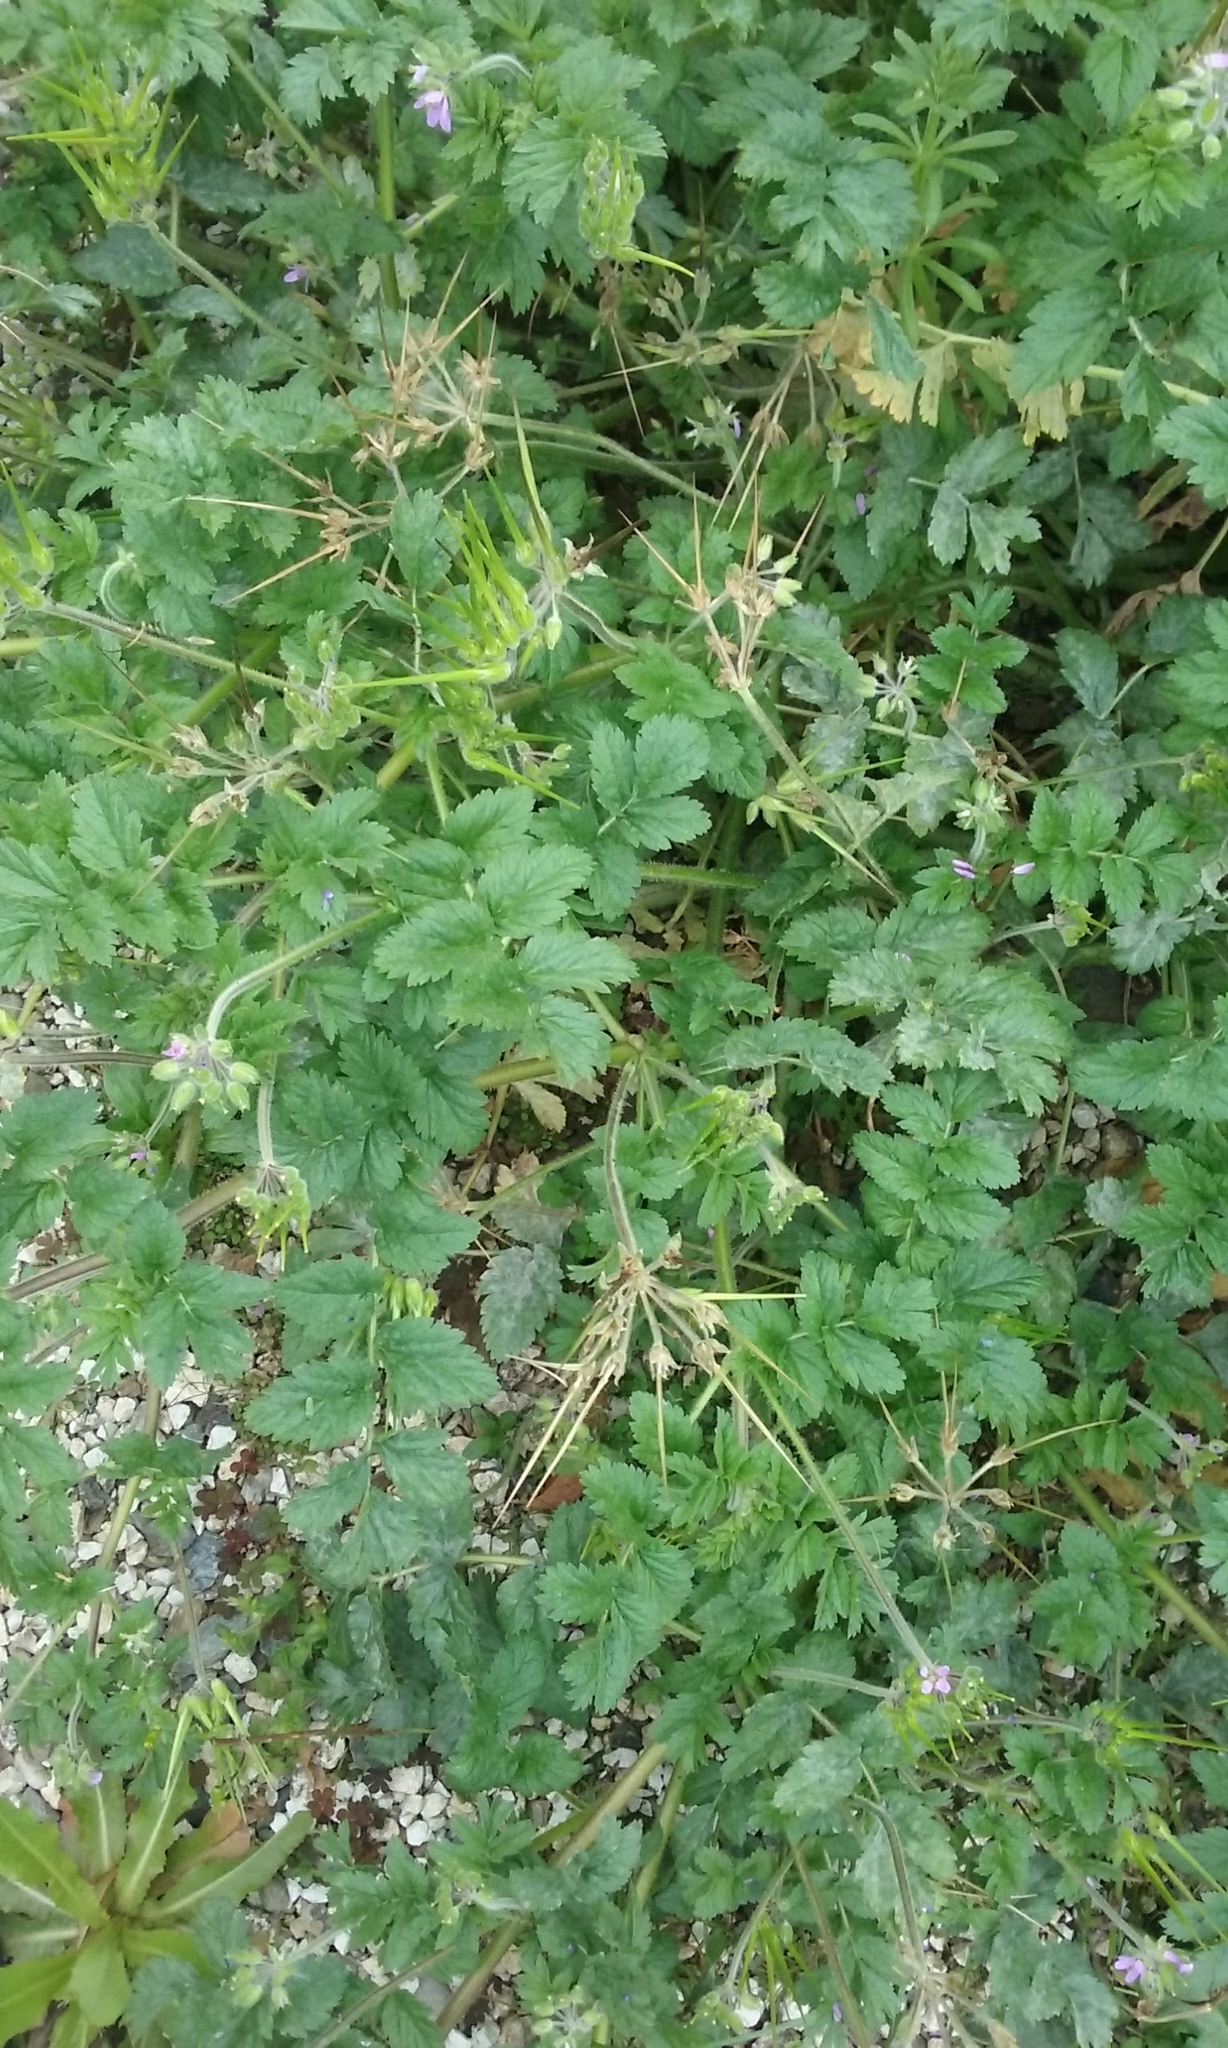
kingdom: Plantae
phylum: Tracheophyta
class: Magnoliopsida
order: Geraniales
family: Geraniaceae
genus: Erodium
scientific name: Erodium moschatum
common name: Musk stork's-bill
